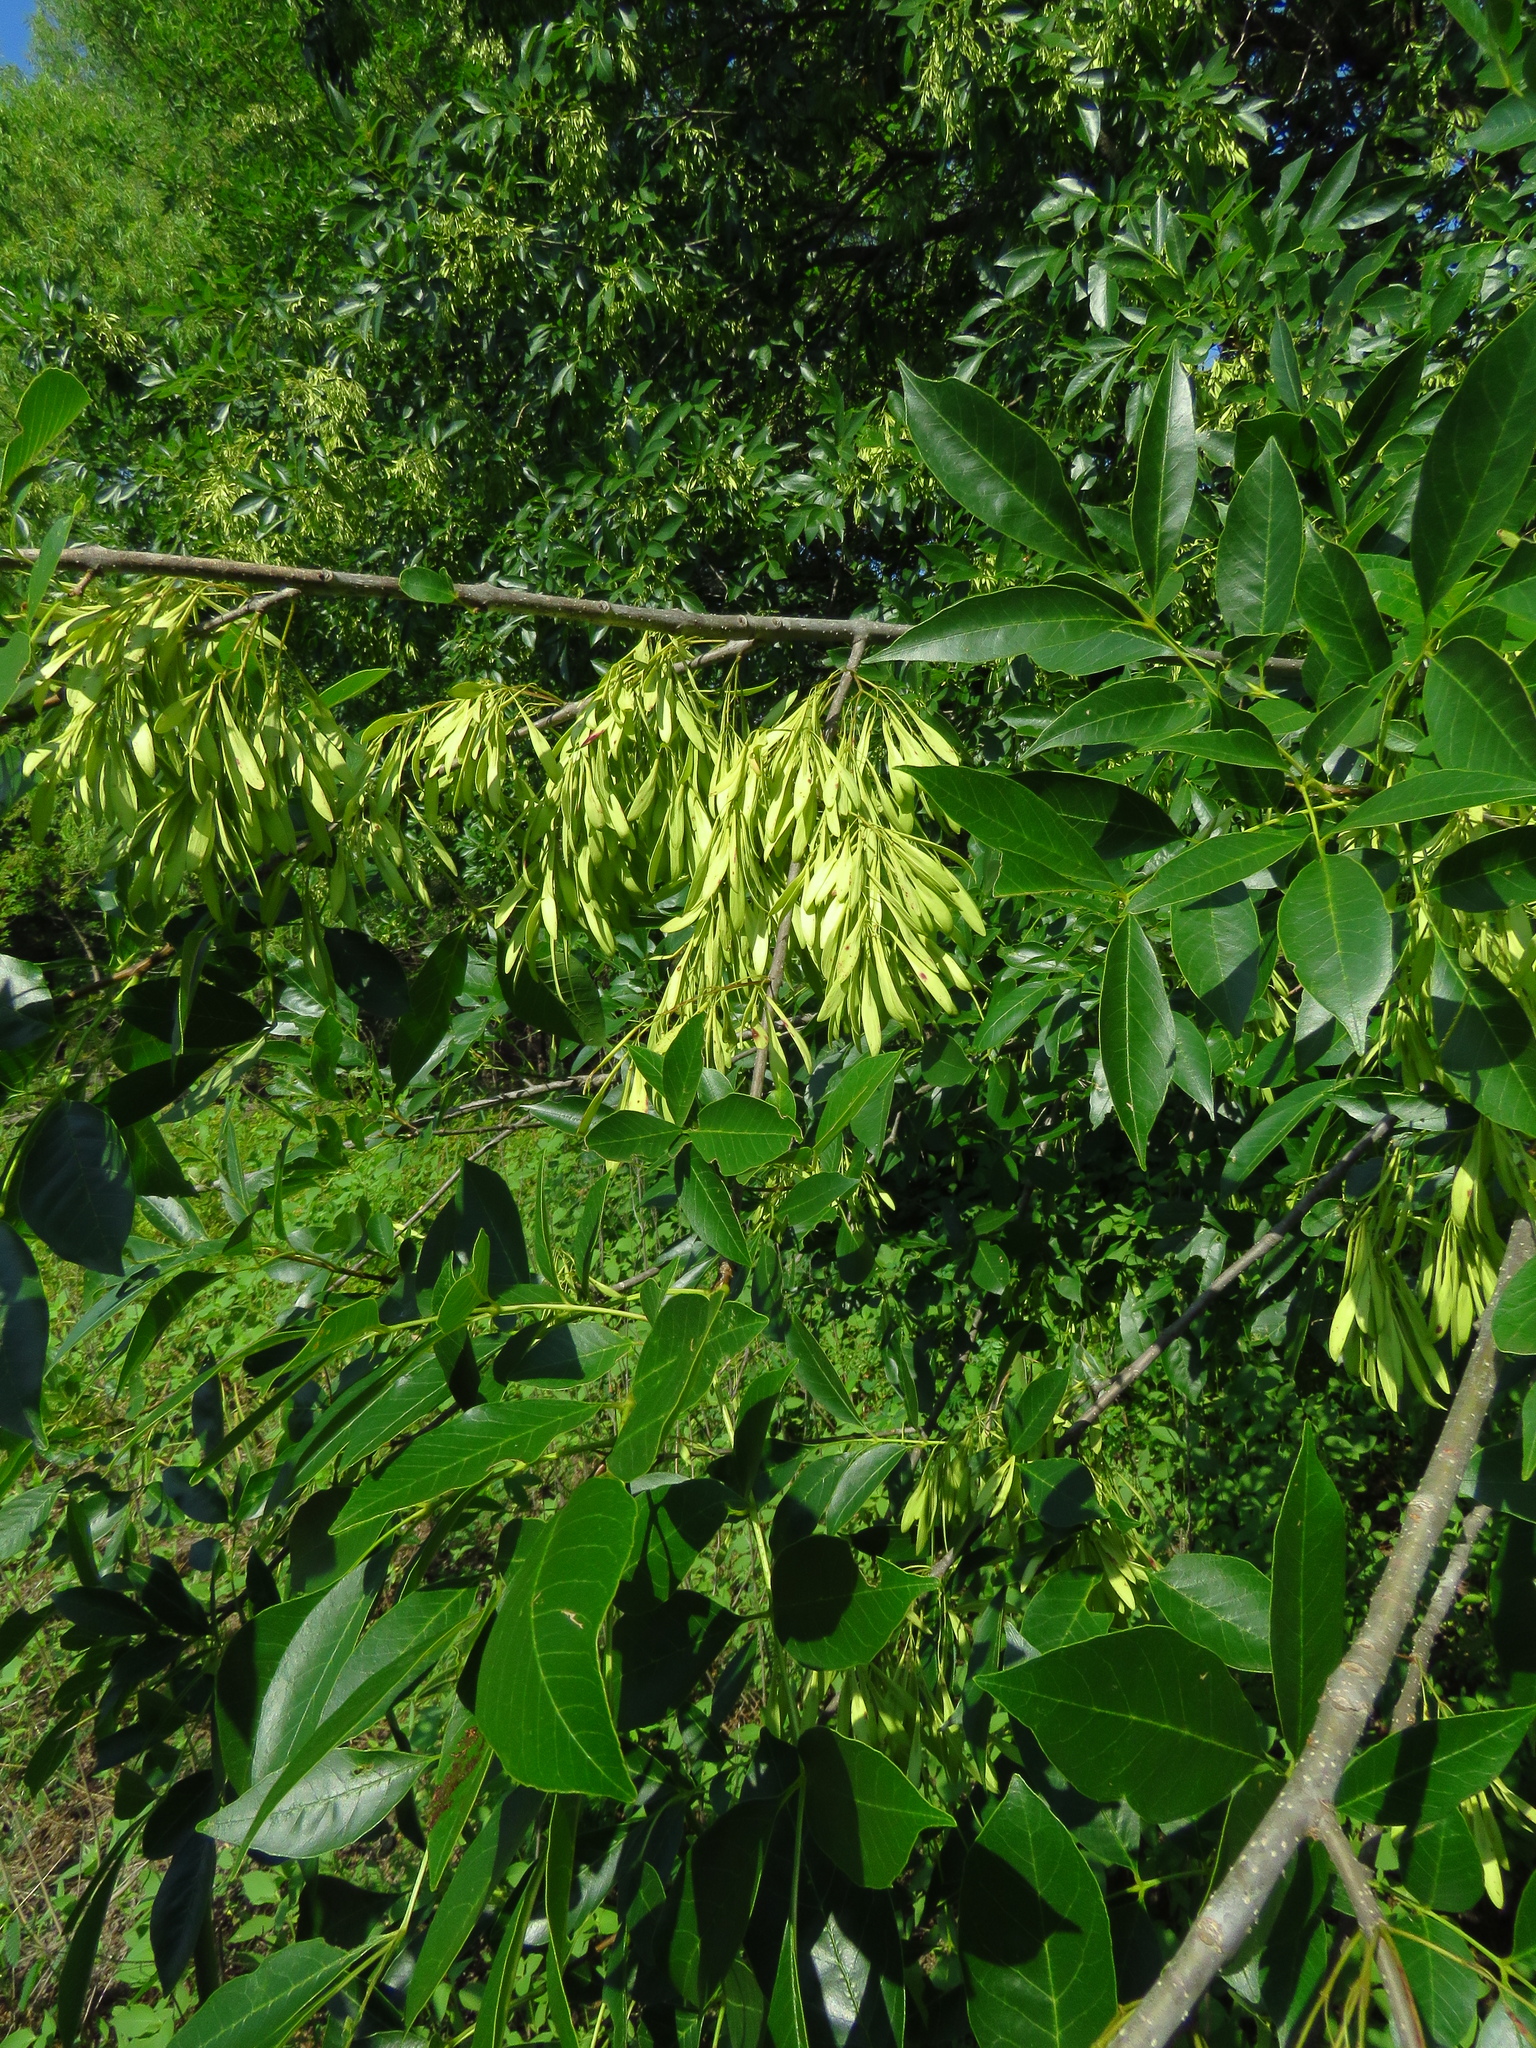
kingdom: Plantae
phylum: Tracheophyta
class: Magnoliopsida
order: Lamiales
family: Oleaceae
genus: Fraxinus
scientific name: Fraxinus pennsylvanica
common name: Green ash
